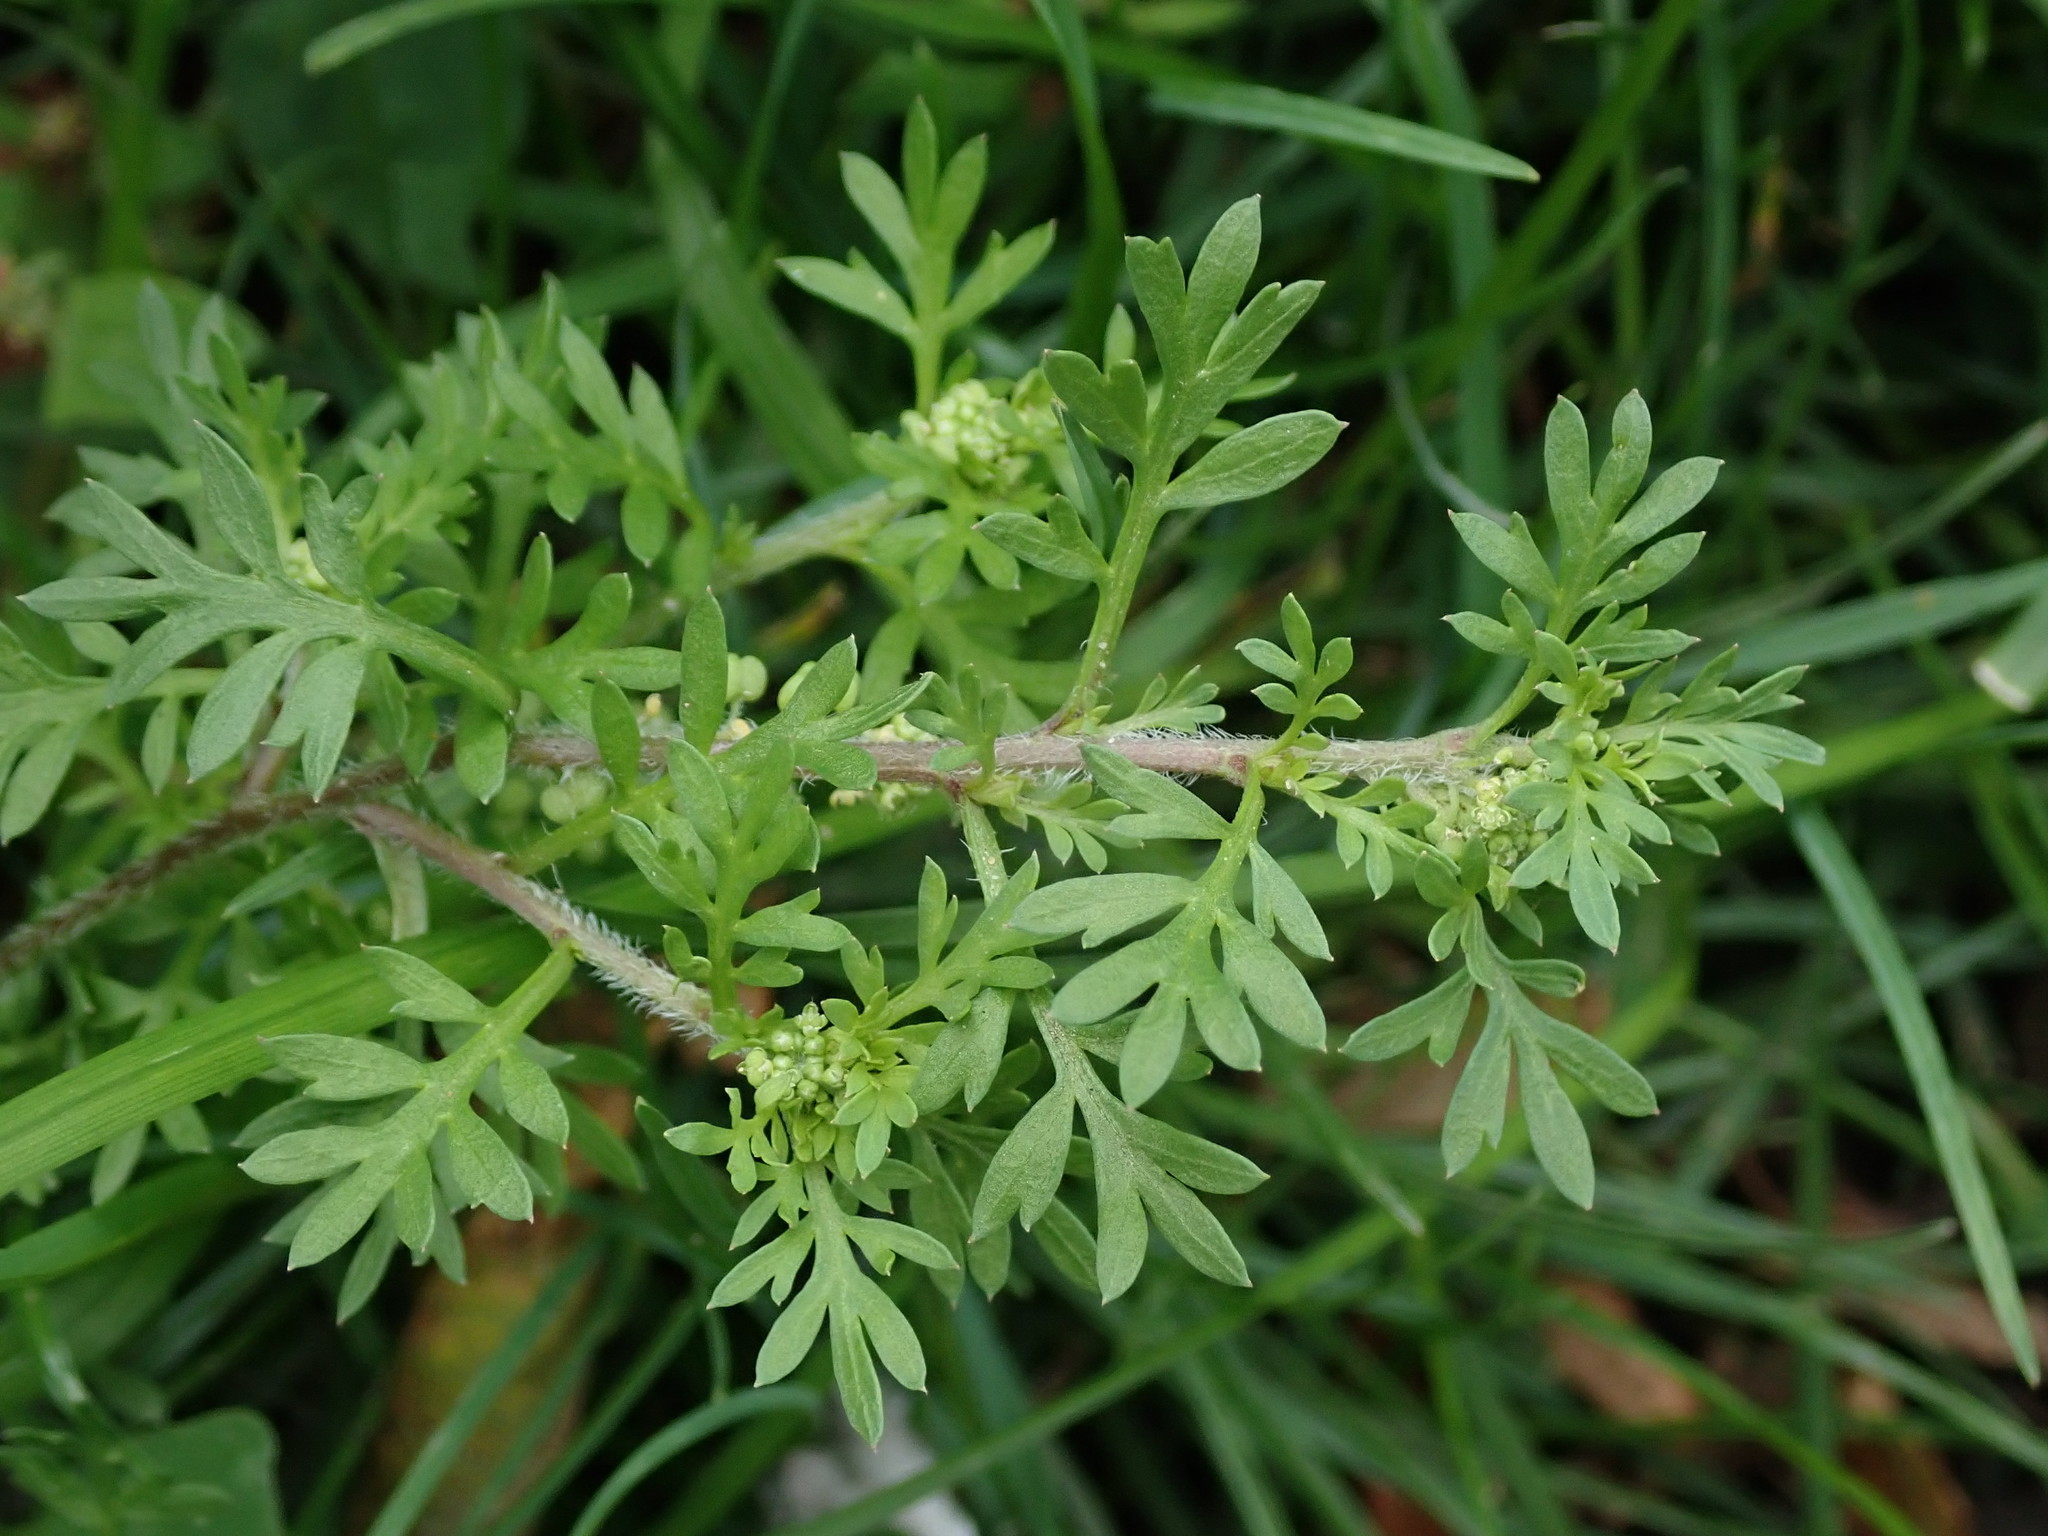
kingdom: Plantae
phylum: Tracheophyta
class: Magnoliopsida
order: Brassicales
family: Brassicaceae
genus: Lepidium
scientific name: Lepidium didymum
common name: Lesser swinecress
